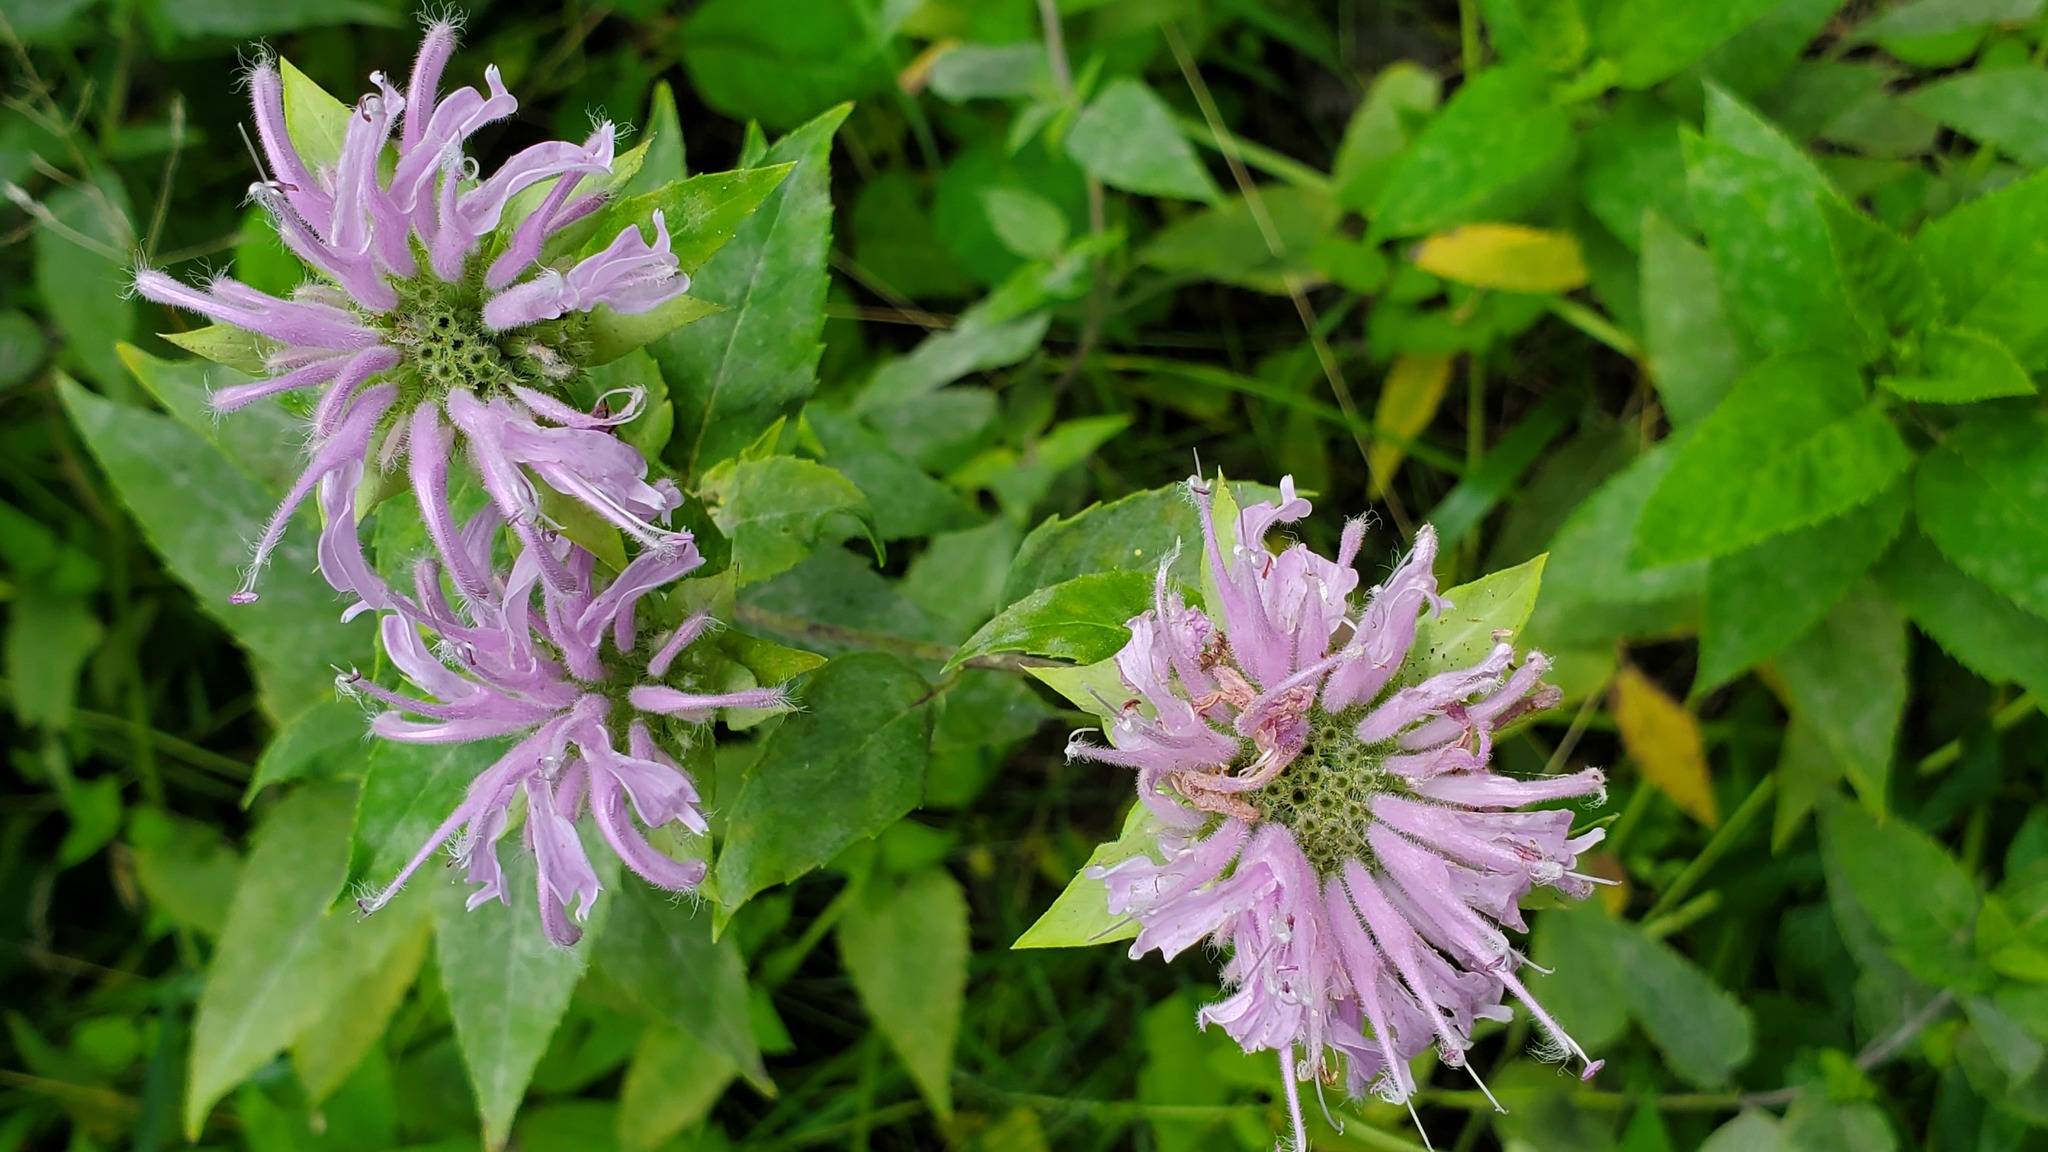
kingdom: Plantae
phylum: Tracheophyta
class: Magnoliopsida
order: Lamiales
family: Lamiaceae
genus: Monarda
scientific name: Monarda fistulosa
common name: Purple beebalm
